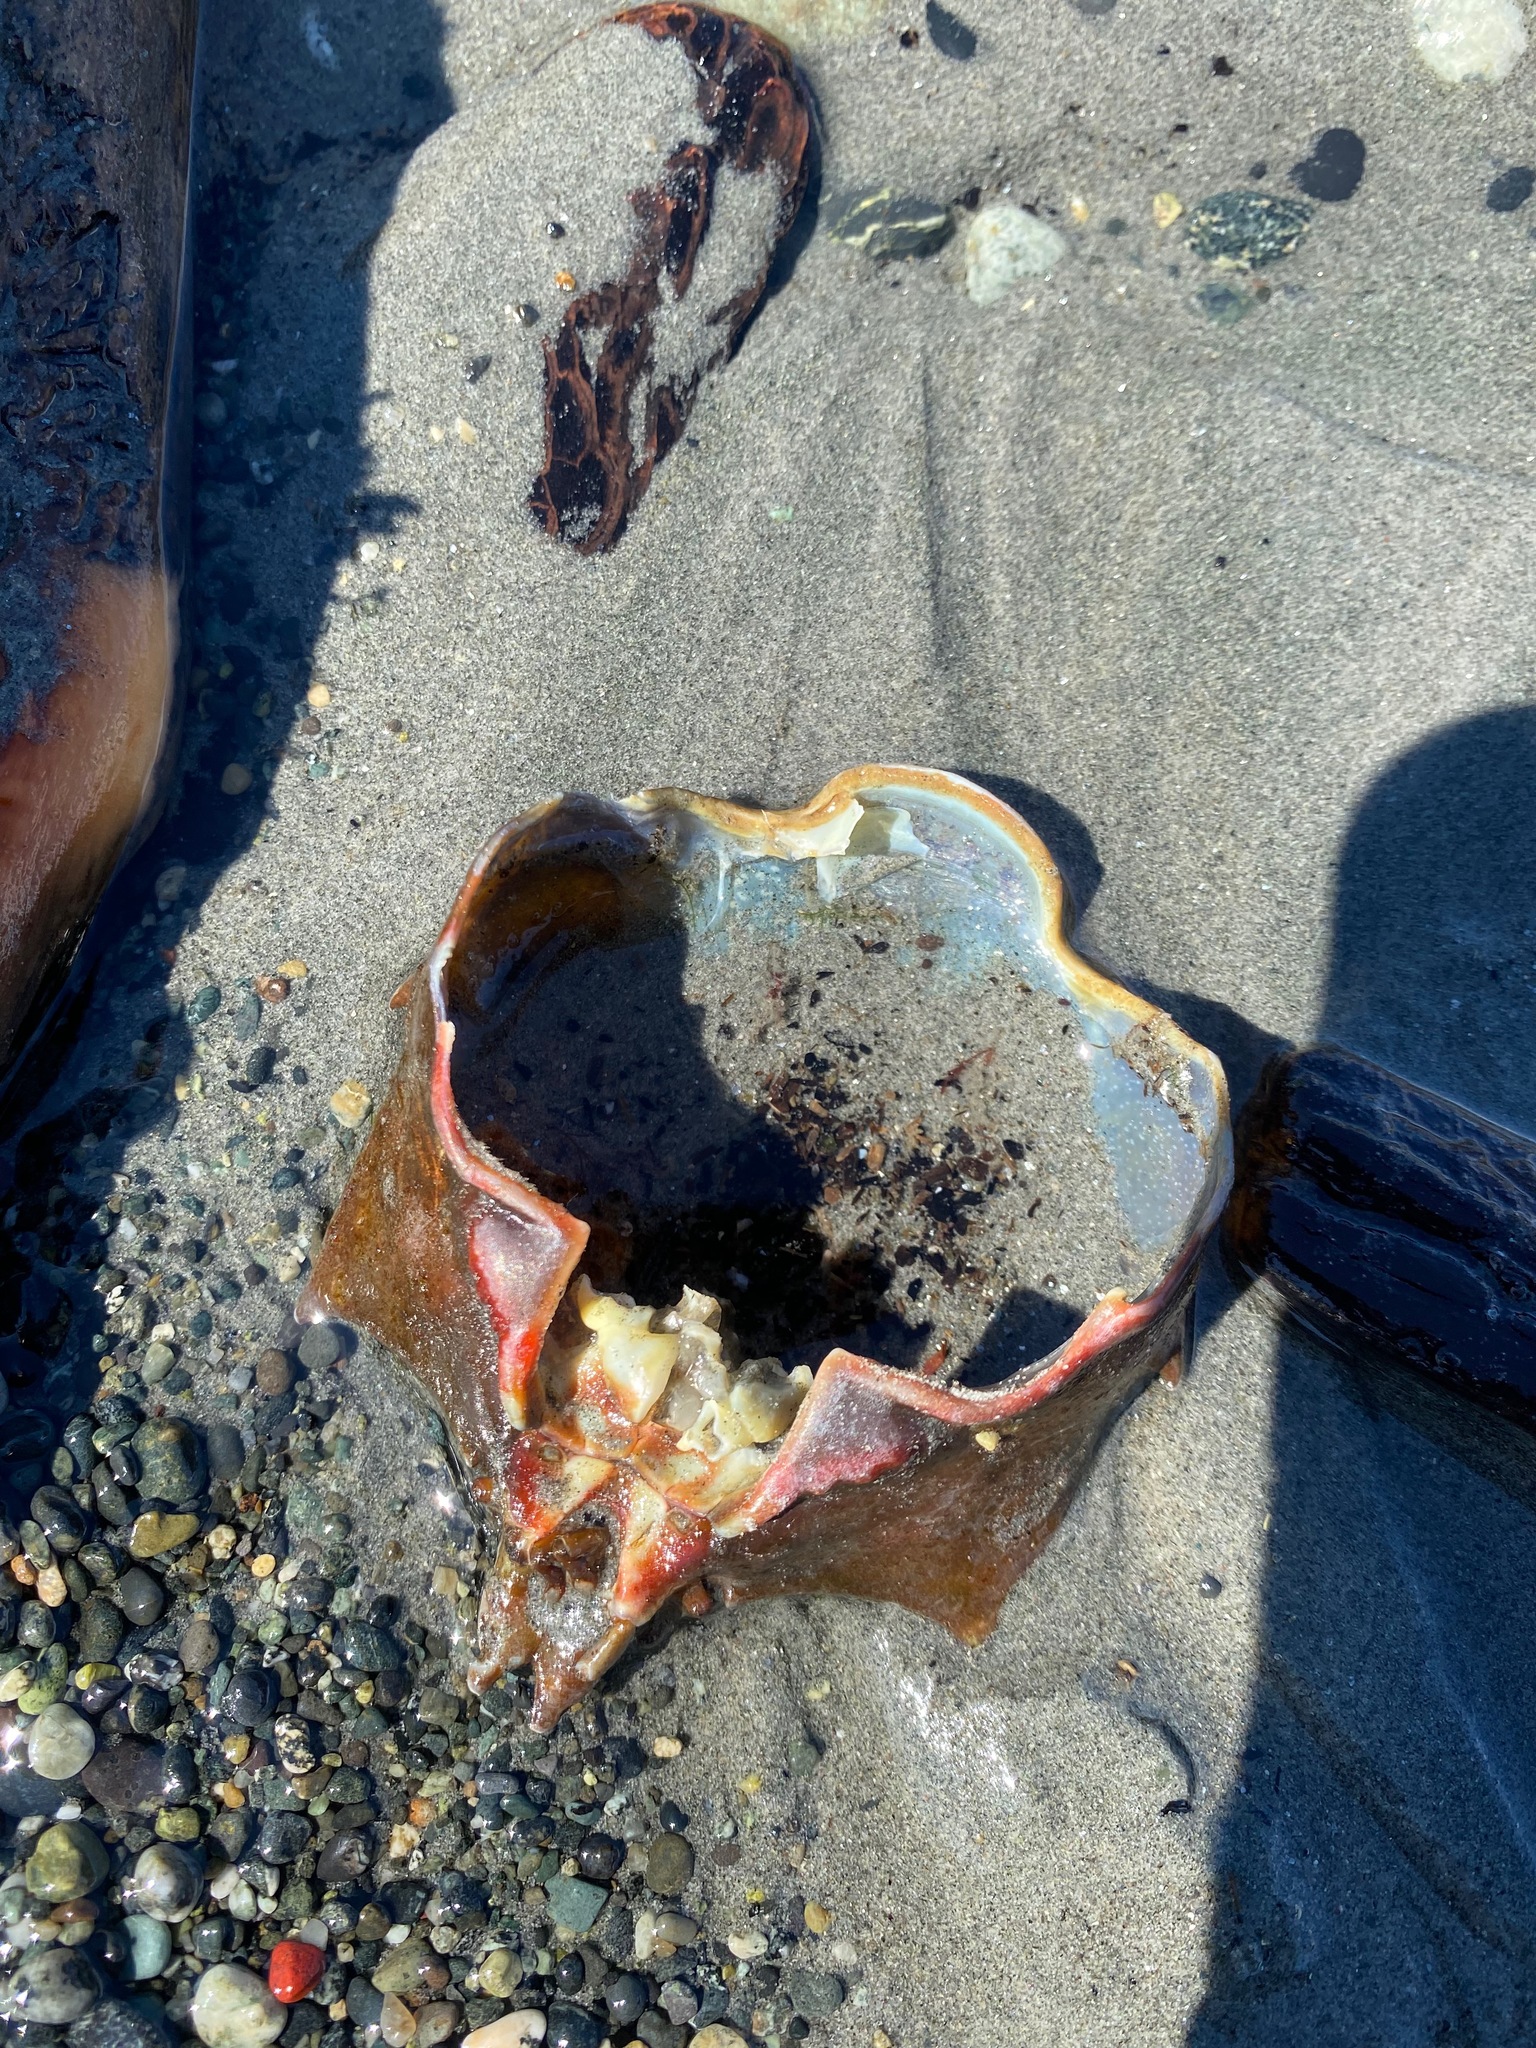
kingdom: Animalia
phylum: Arthropoda
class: Malacostraca
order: Decapoda
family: Epialtidae
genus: Pugettia
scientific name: Pugettia producta
